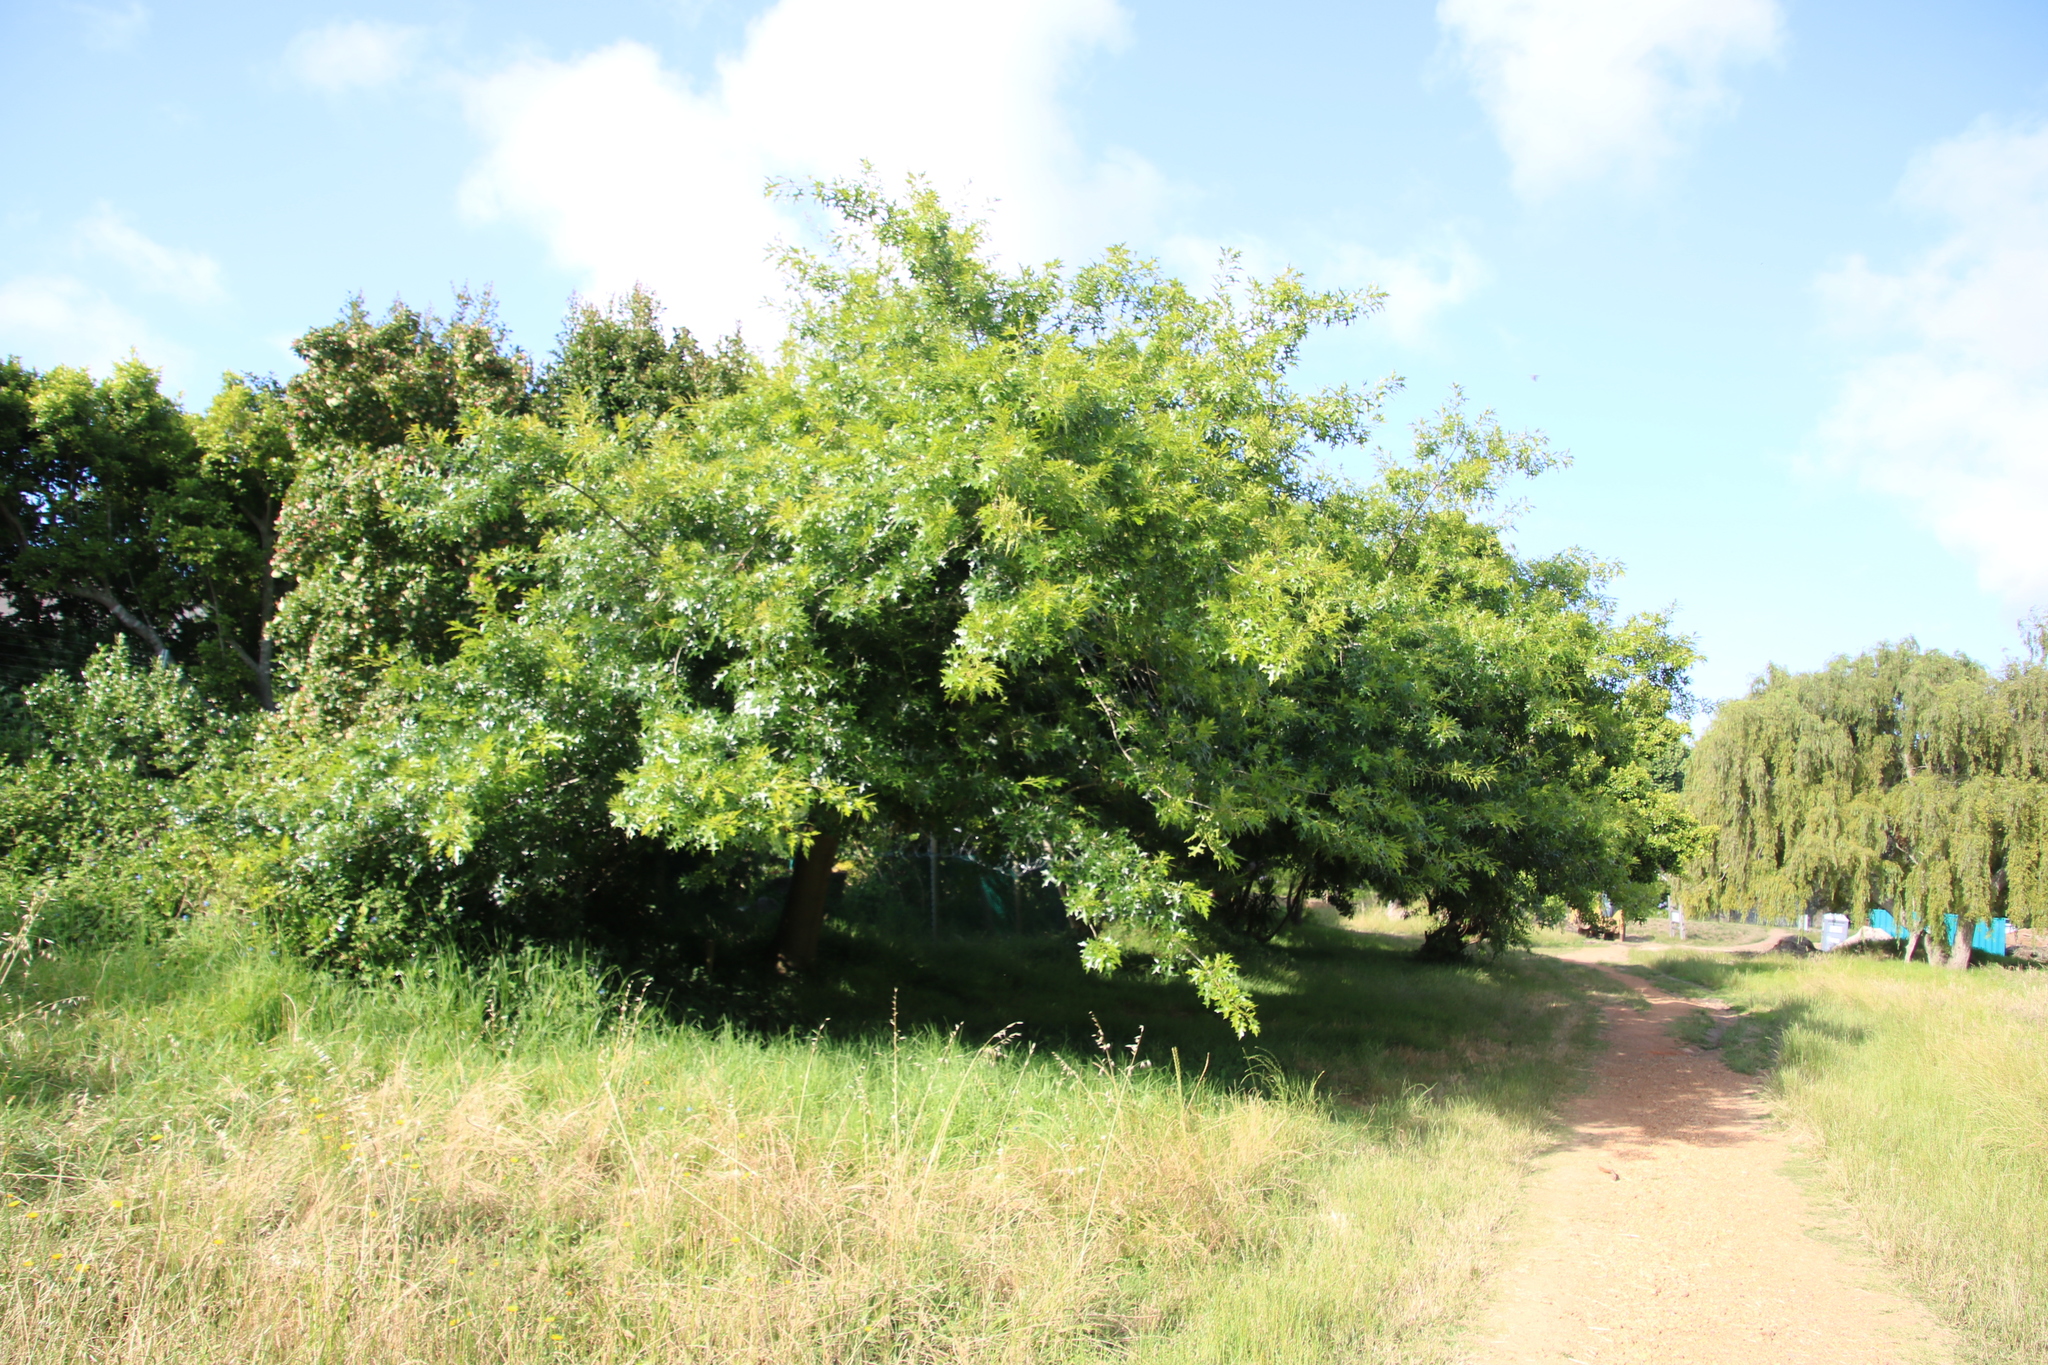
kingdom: Plantae
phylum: Tracheophyta
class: Magnoliopsida
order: Fagales
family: Fagaceae
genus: Quercus
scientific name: Quercus palustris
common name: Pin oak
